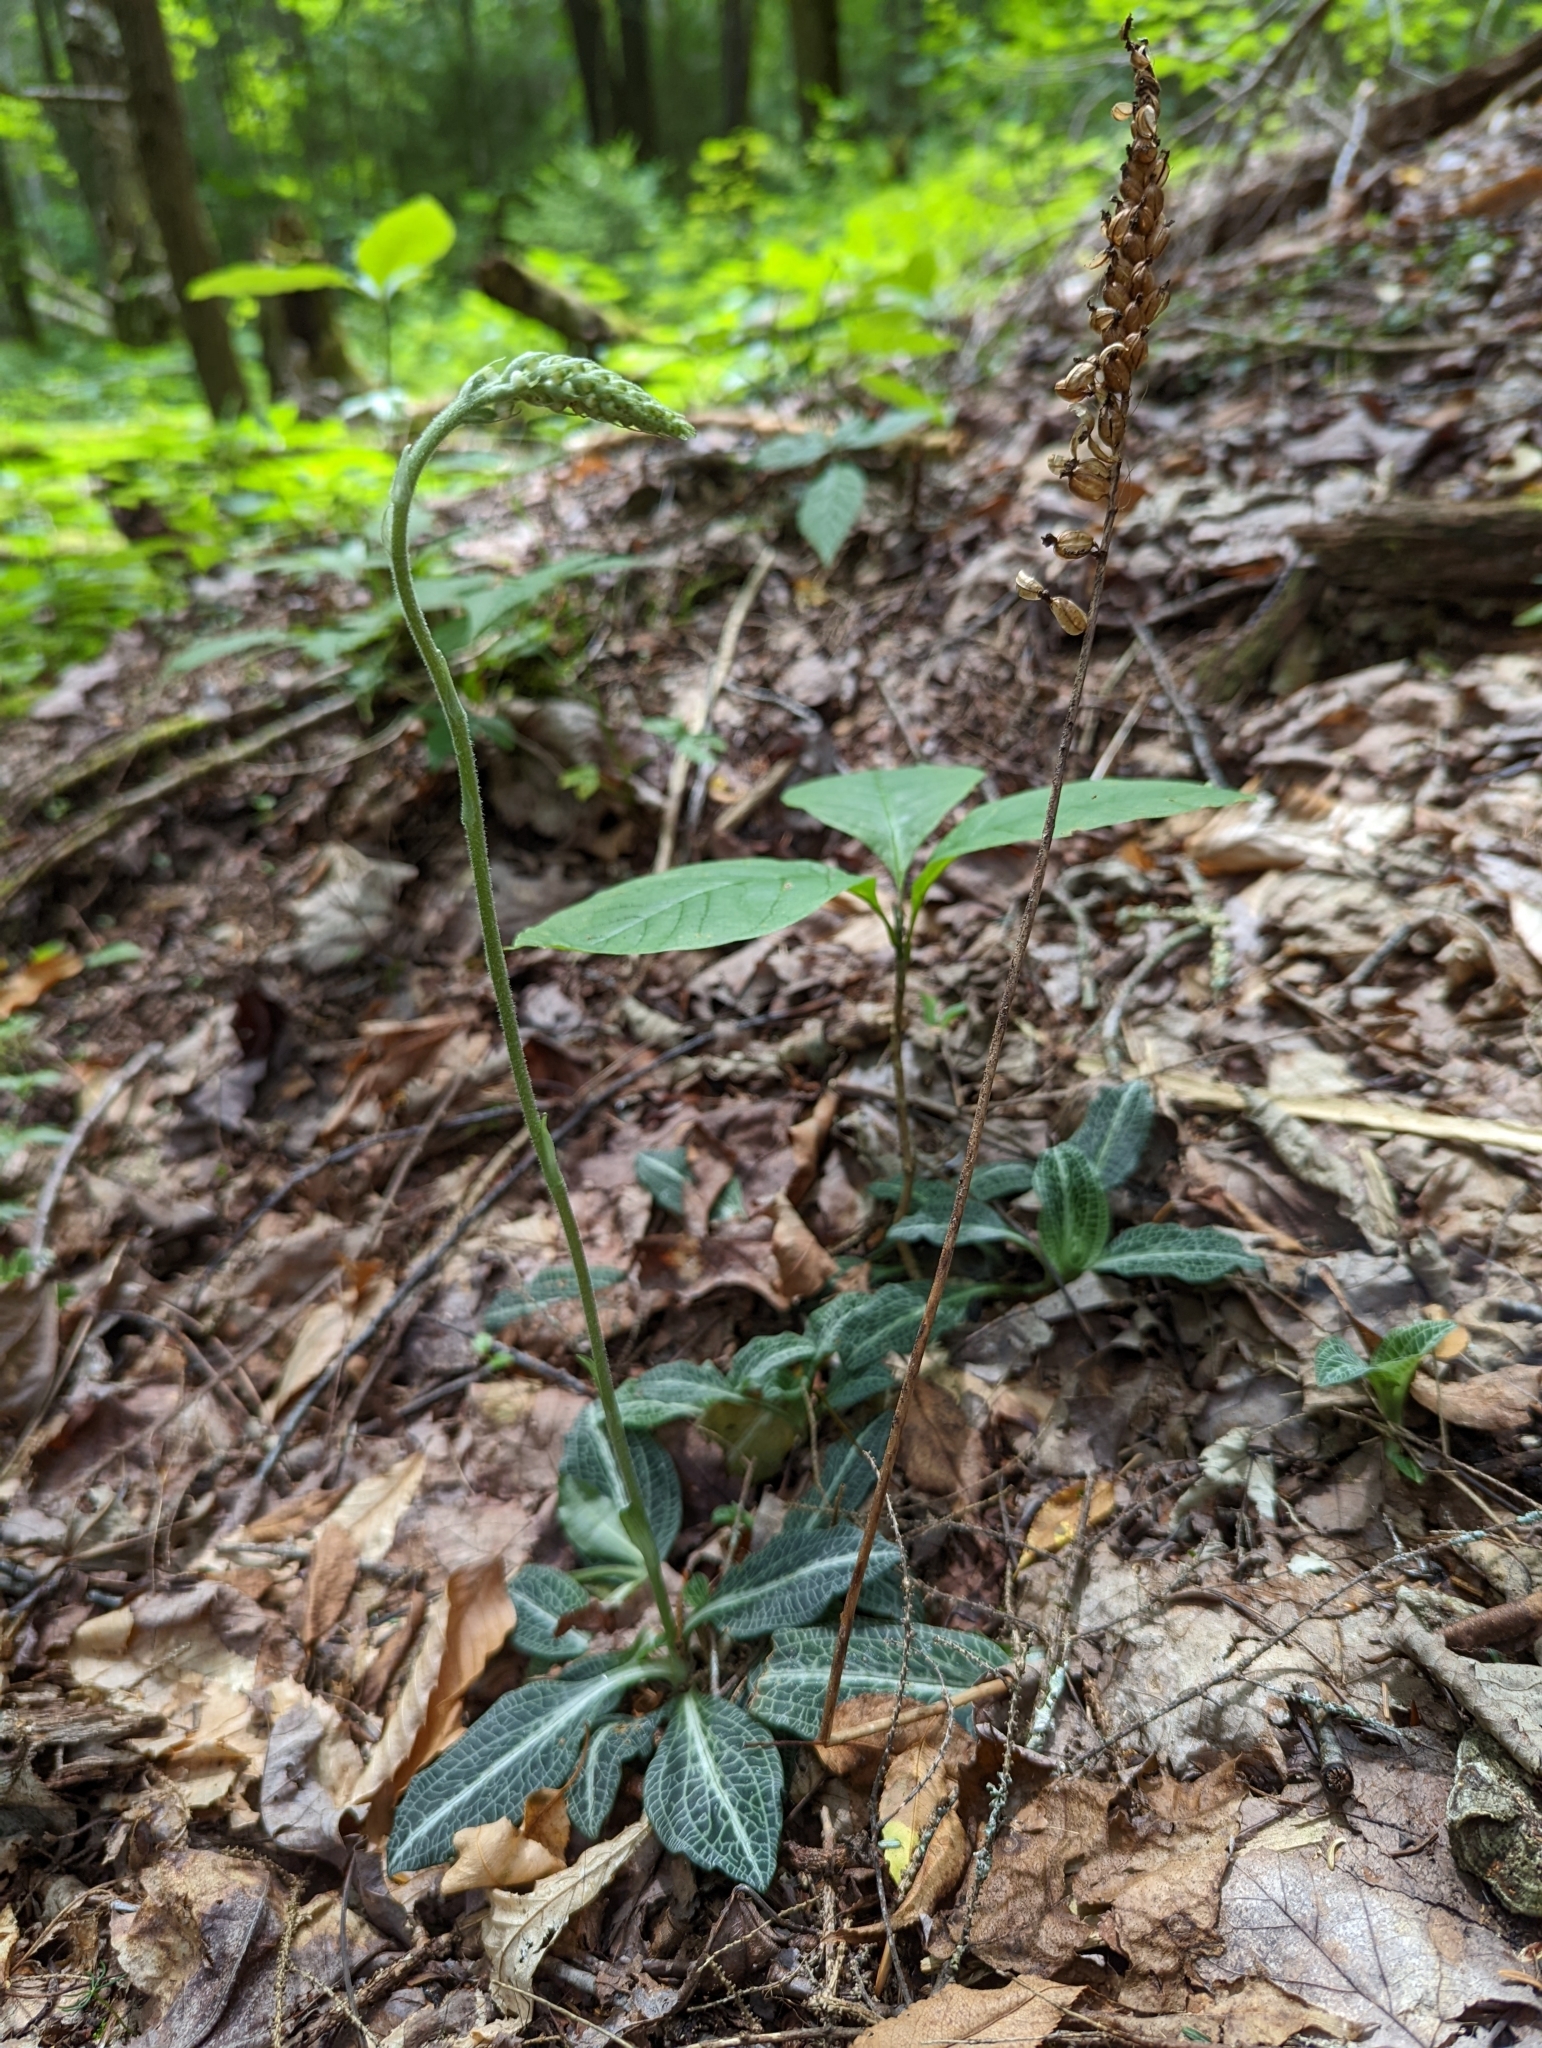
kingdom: Plantae
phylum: Tracheophyta
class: Liliopsida
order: Asparagales
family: Orchidaceae
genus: Goodyera
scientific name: Goodyera pubescens
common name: Downy rattlesnake-plantain
